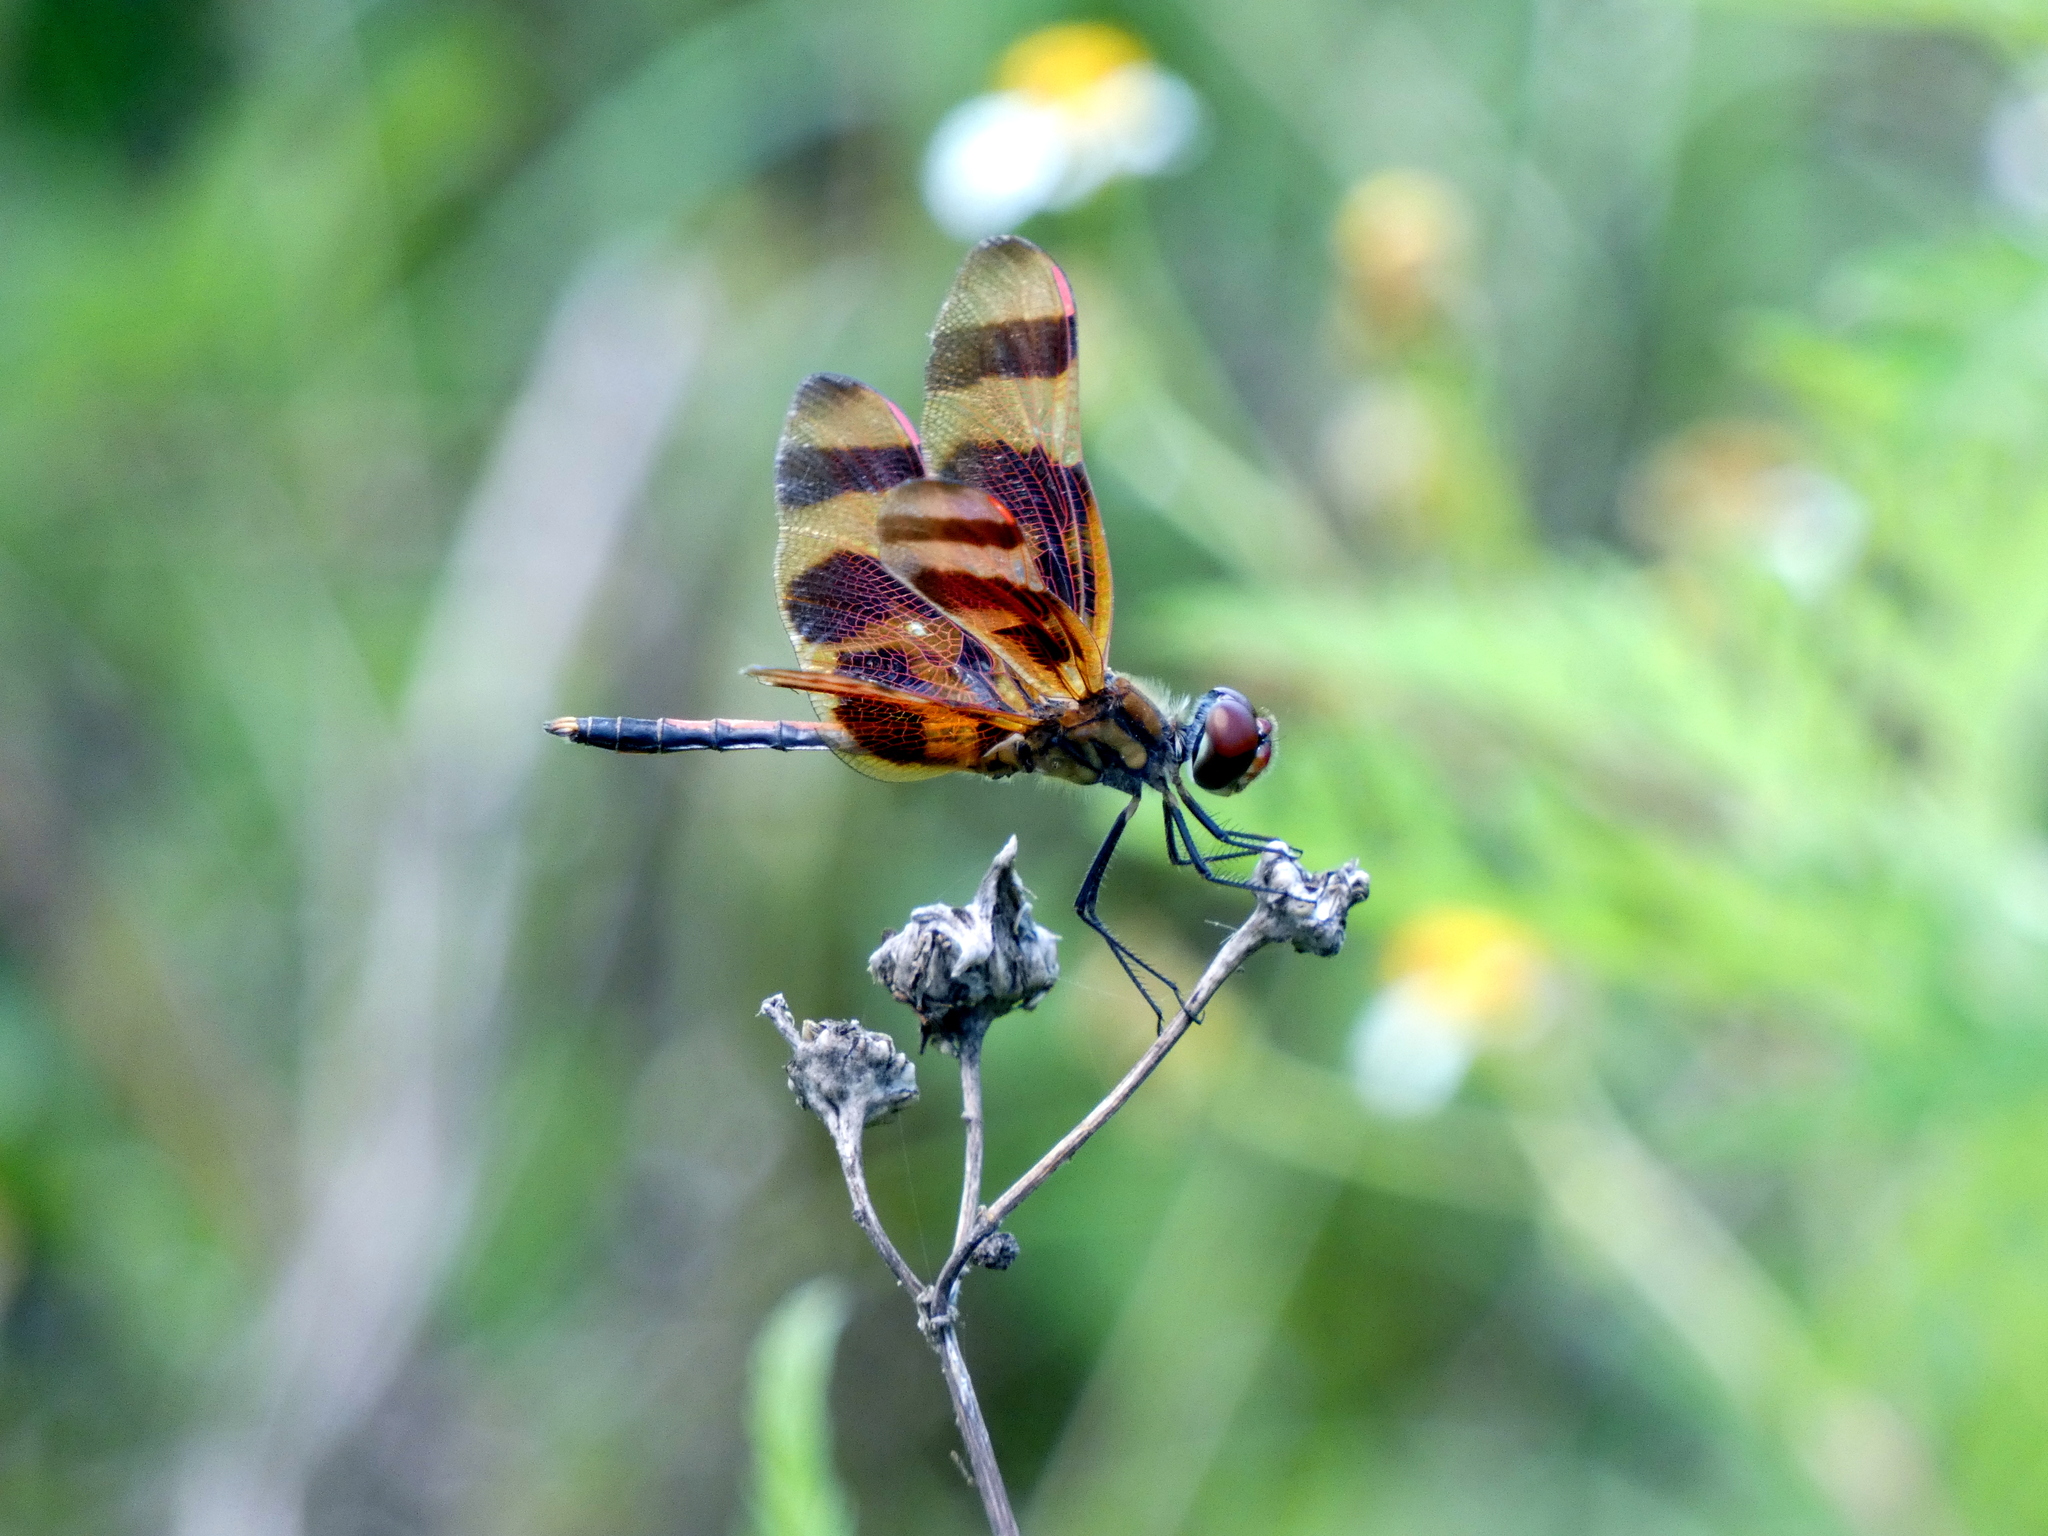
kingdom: Animalia
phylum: Arthropoda
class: Insecta
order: Odonata
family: Libellulidae
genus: Celithemis
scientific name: Celithemis eponina
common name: Halloween pennant
